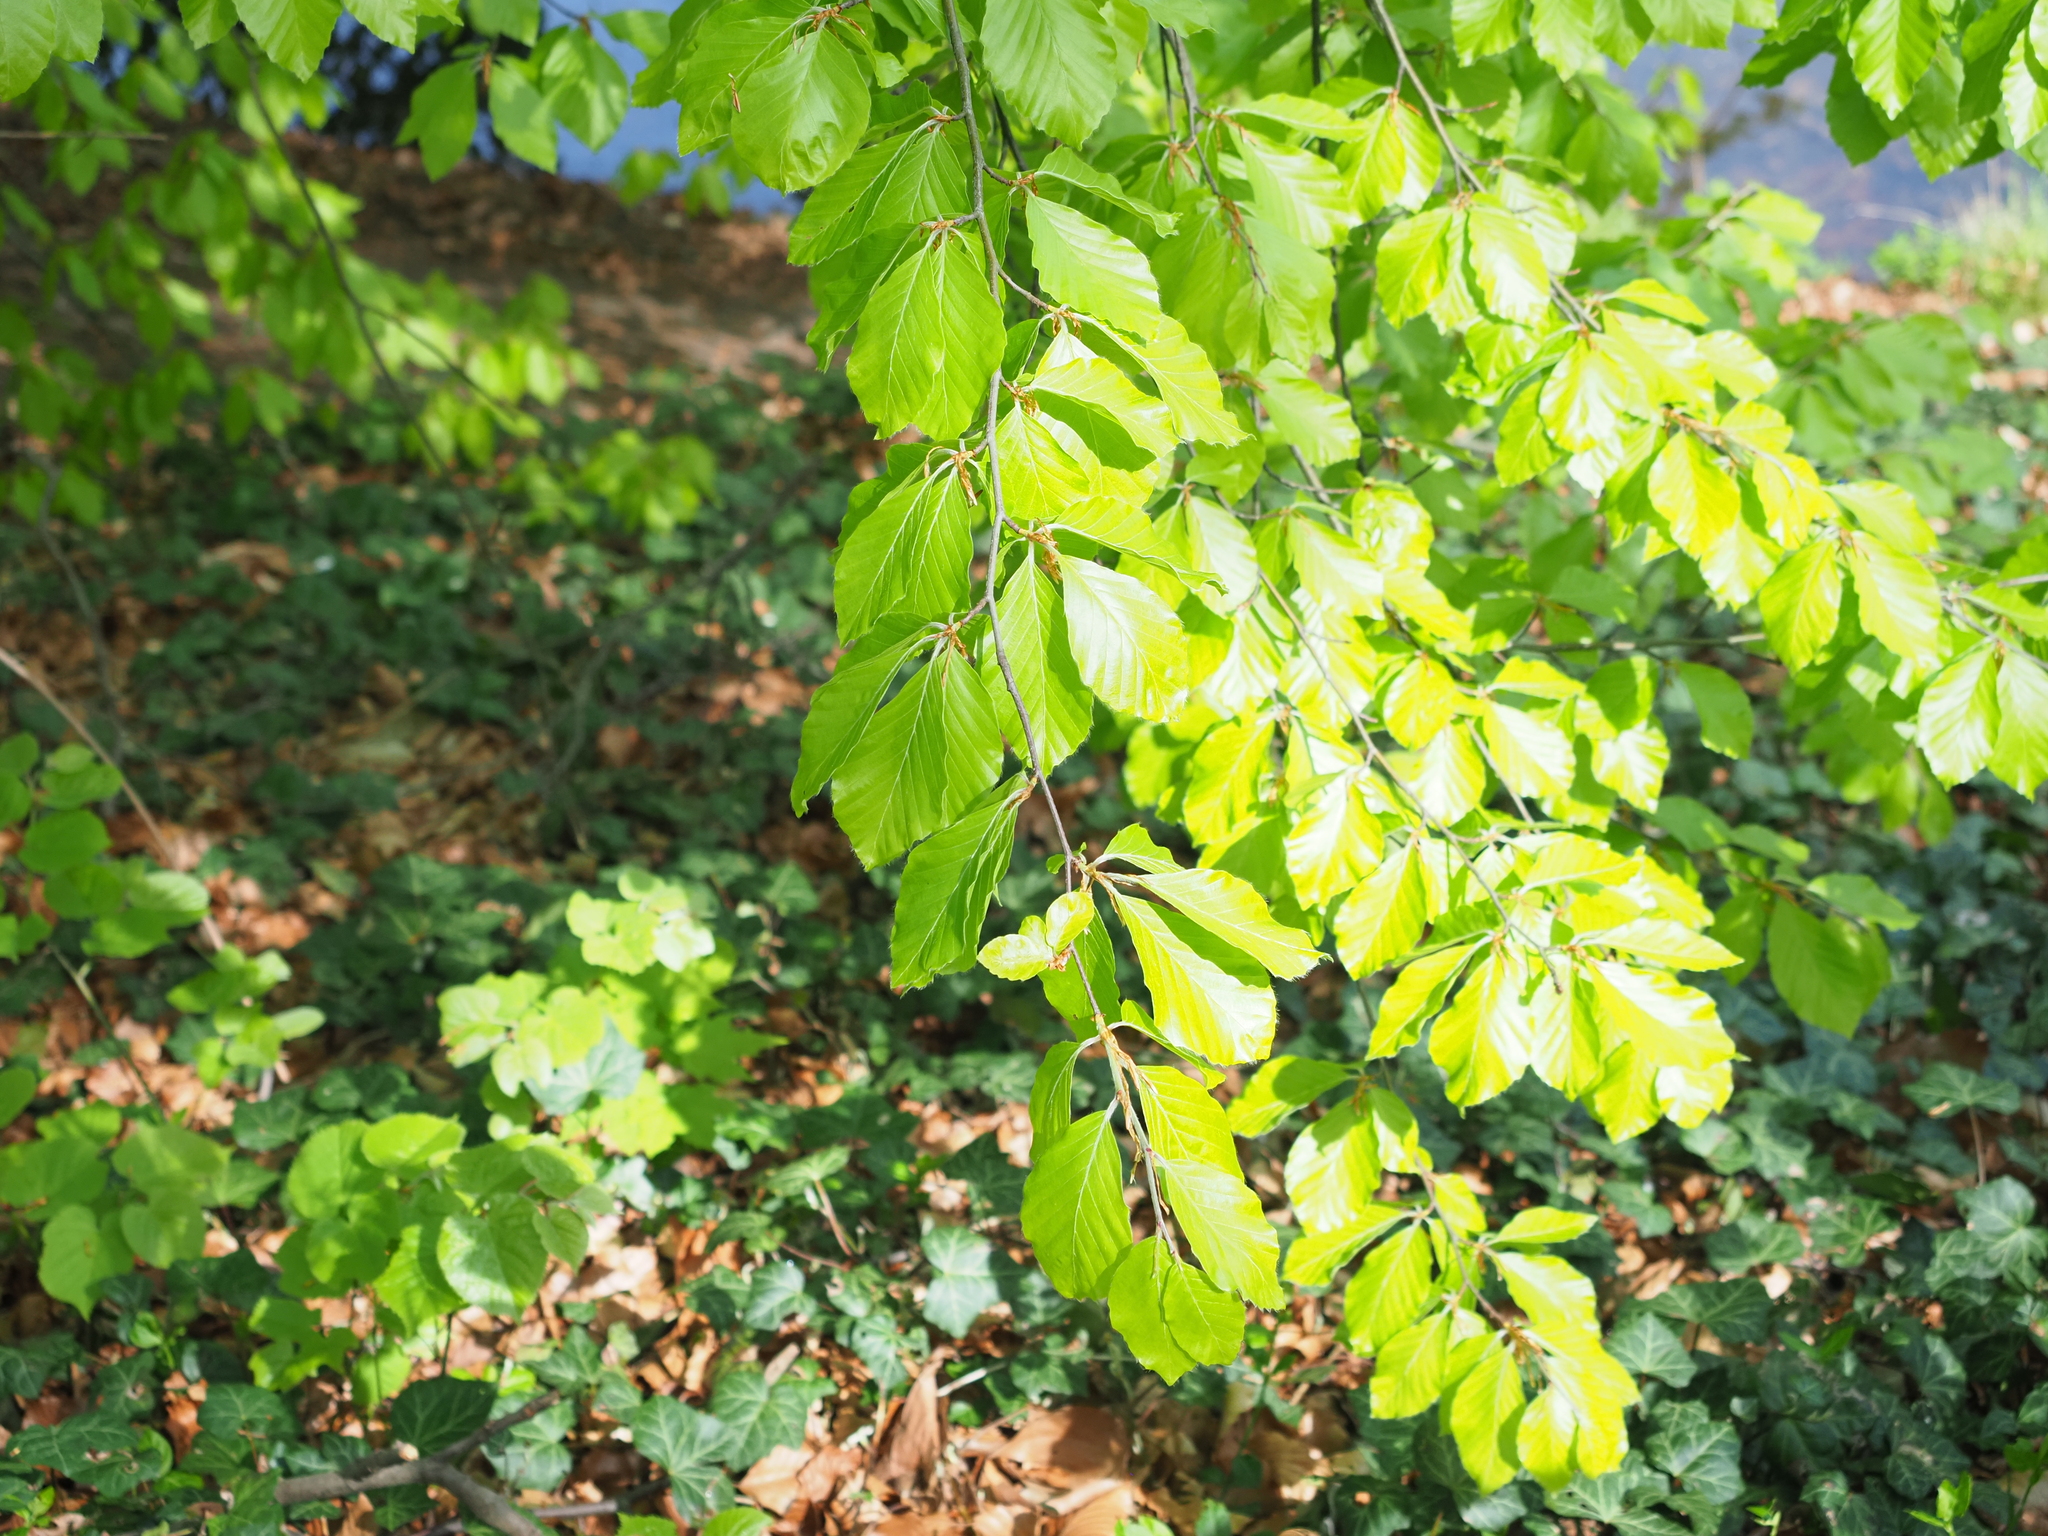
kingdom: Plantae
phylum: Tracheophyta
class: Magnoliopsida
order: Fagales
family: Fagaceae
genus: Fagus
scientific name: Fagus sylvatica
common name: Beech
